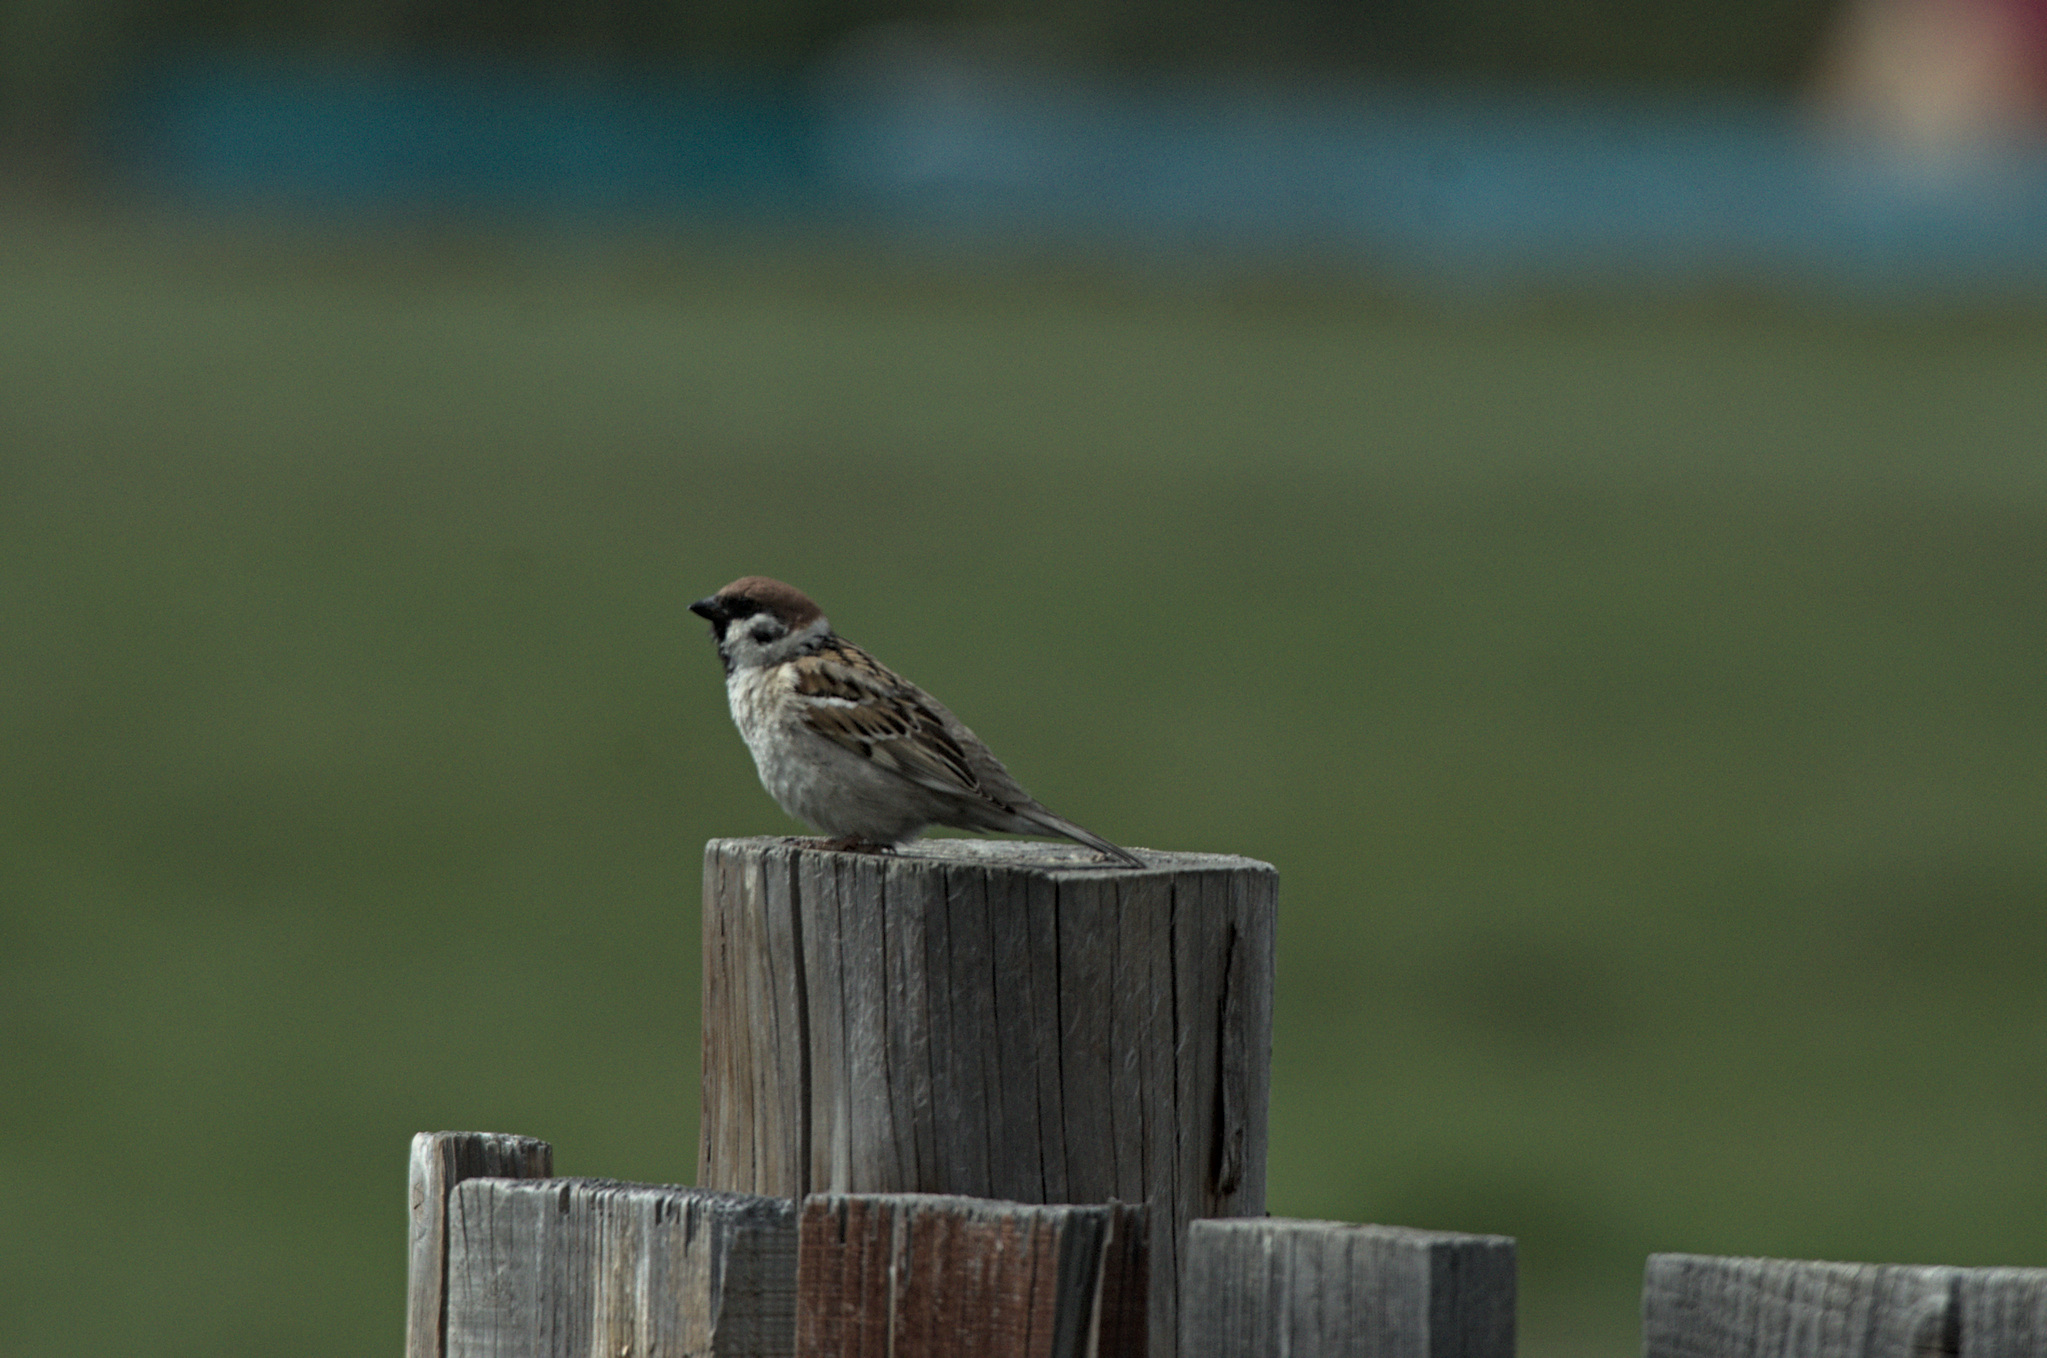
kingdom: Animalia
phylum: Chordata
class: Aves
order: Passeriformes
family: Passeridae
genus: Passer
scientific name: Passer montanus
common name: Eurasian tree sparrow
